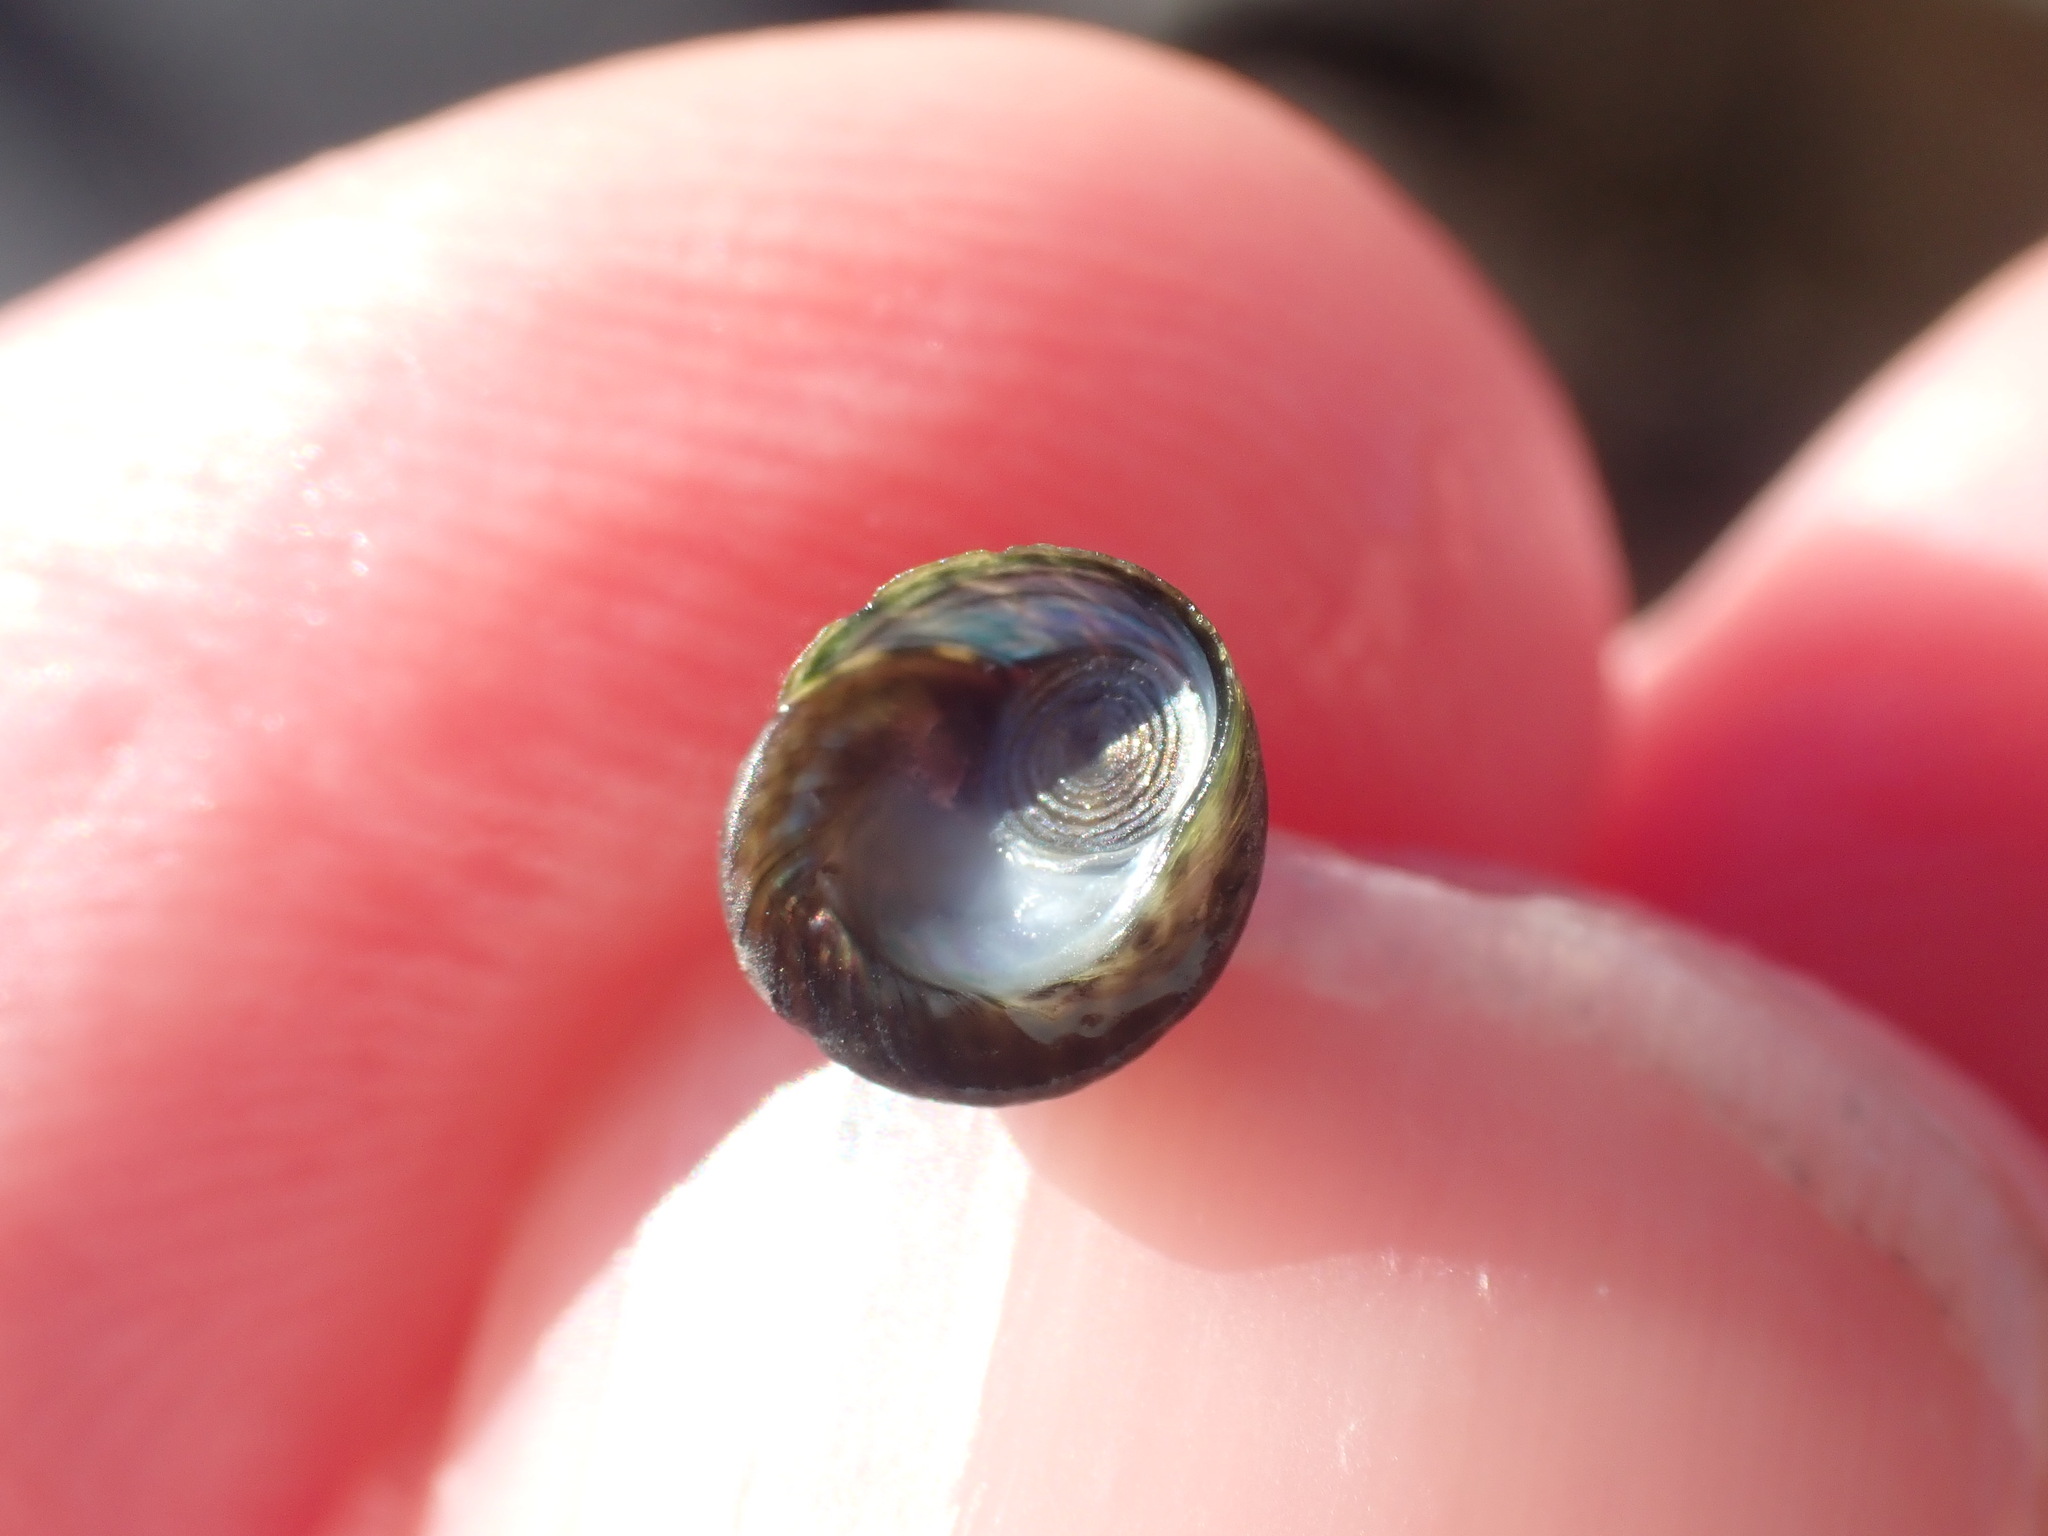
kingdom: Animalia
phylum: Mollusca
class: Gastropoda
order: Trochida
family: Trochidae
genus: Diloma
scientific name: Diloma coracinum
